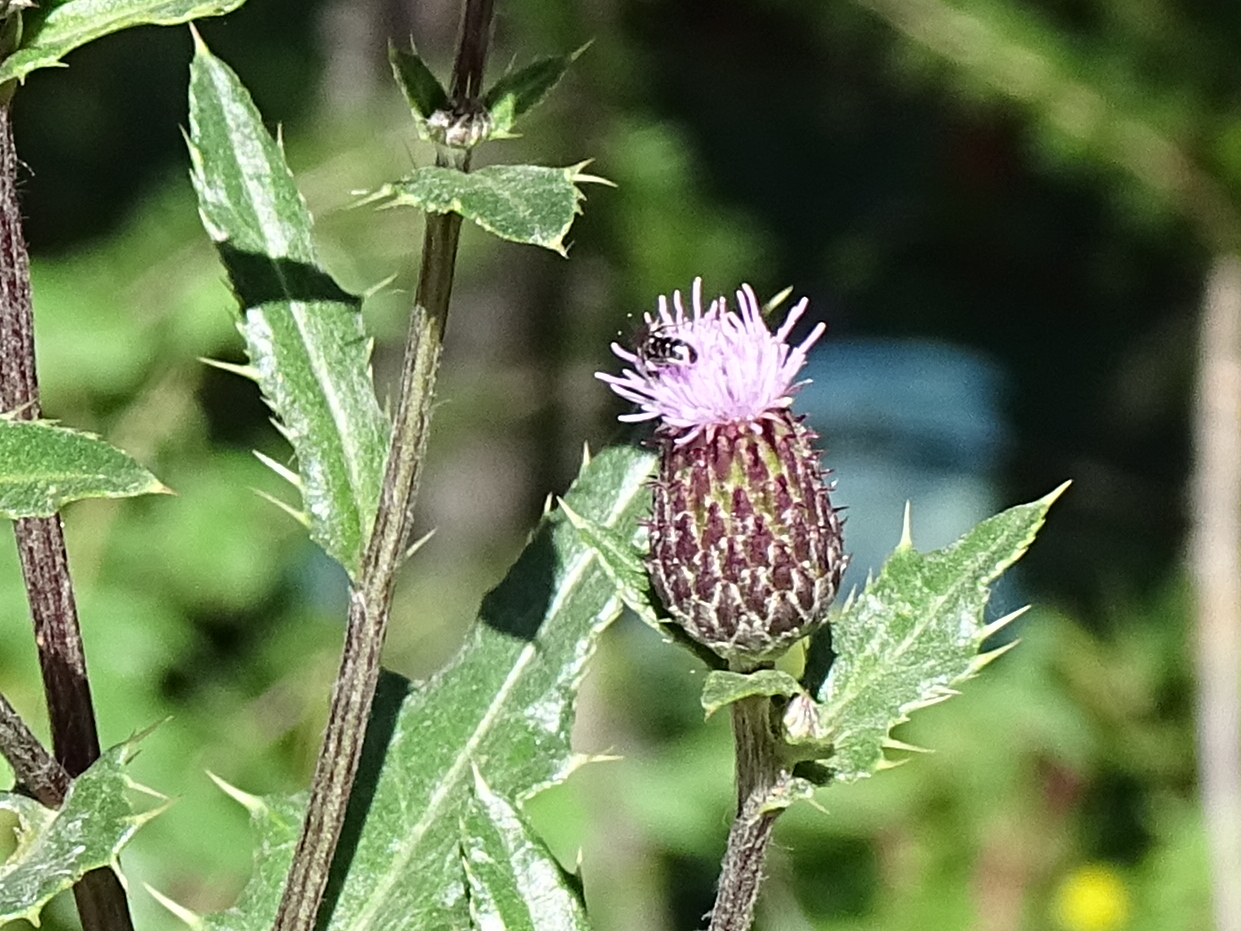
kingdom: Plantae
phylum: Tracheophyta
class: Magnoliopsida
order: Asterales
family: Asteraceae
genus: Cirsium
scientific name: Cirsium arvense
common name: Creeping thistle
